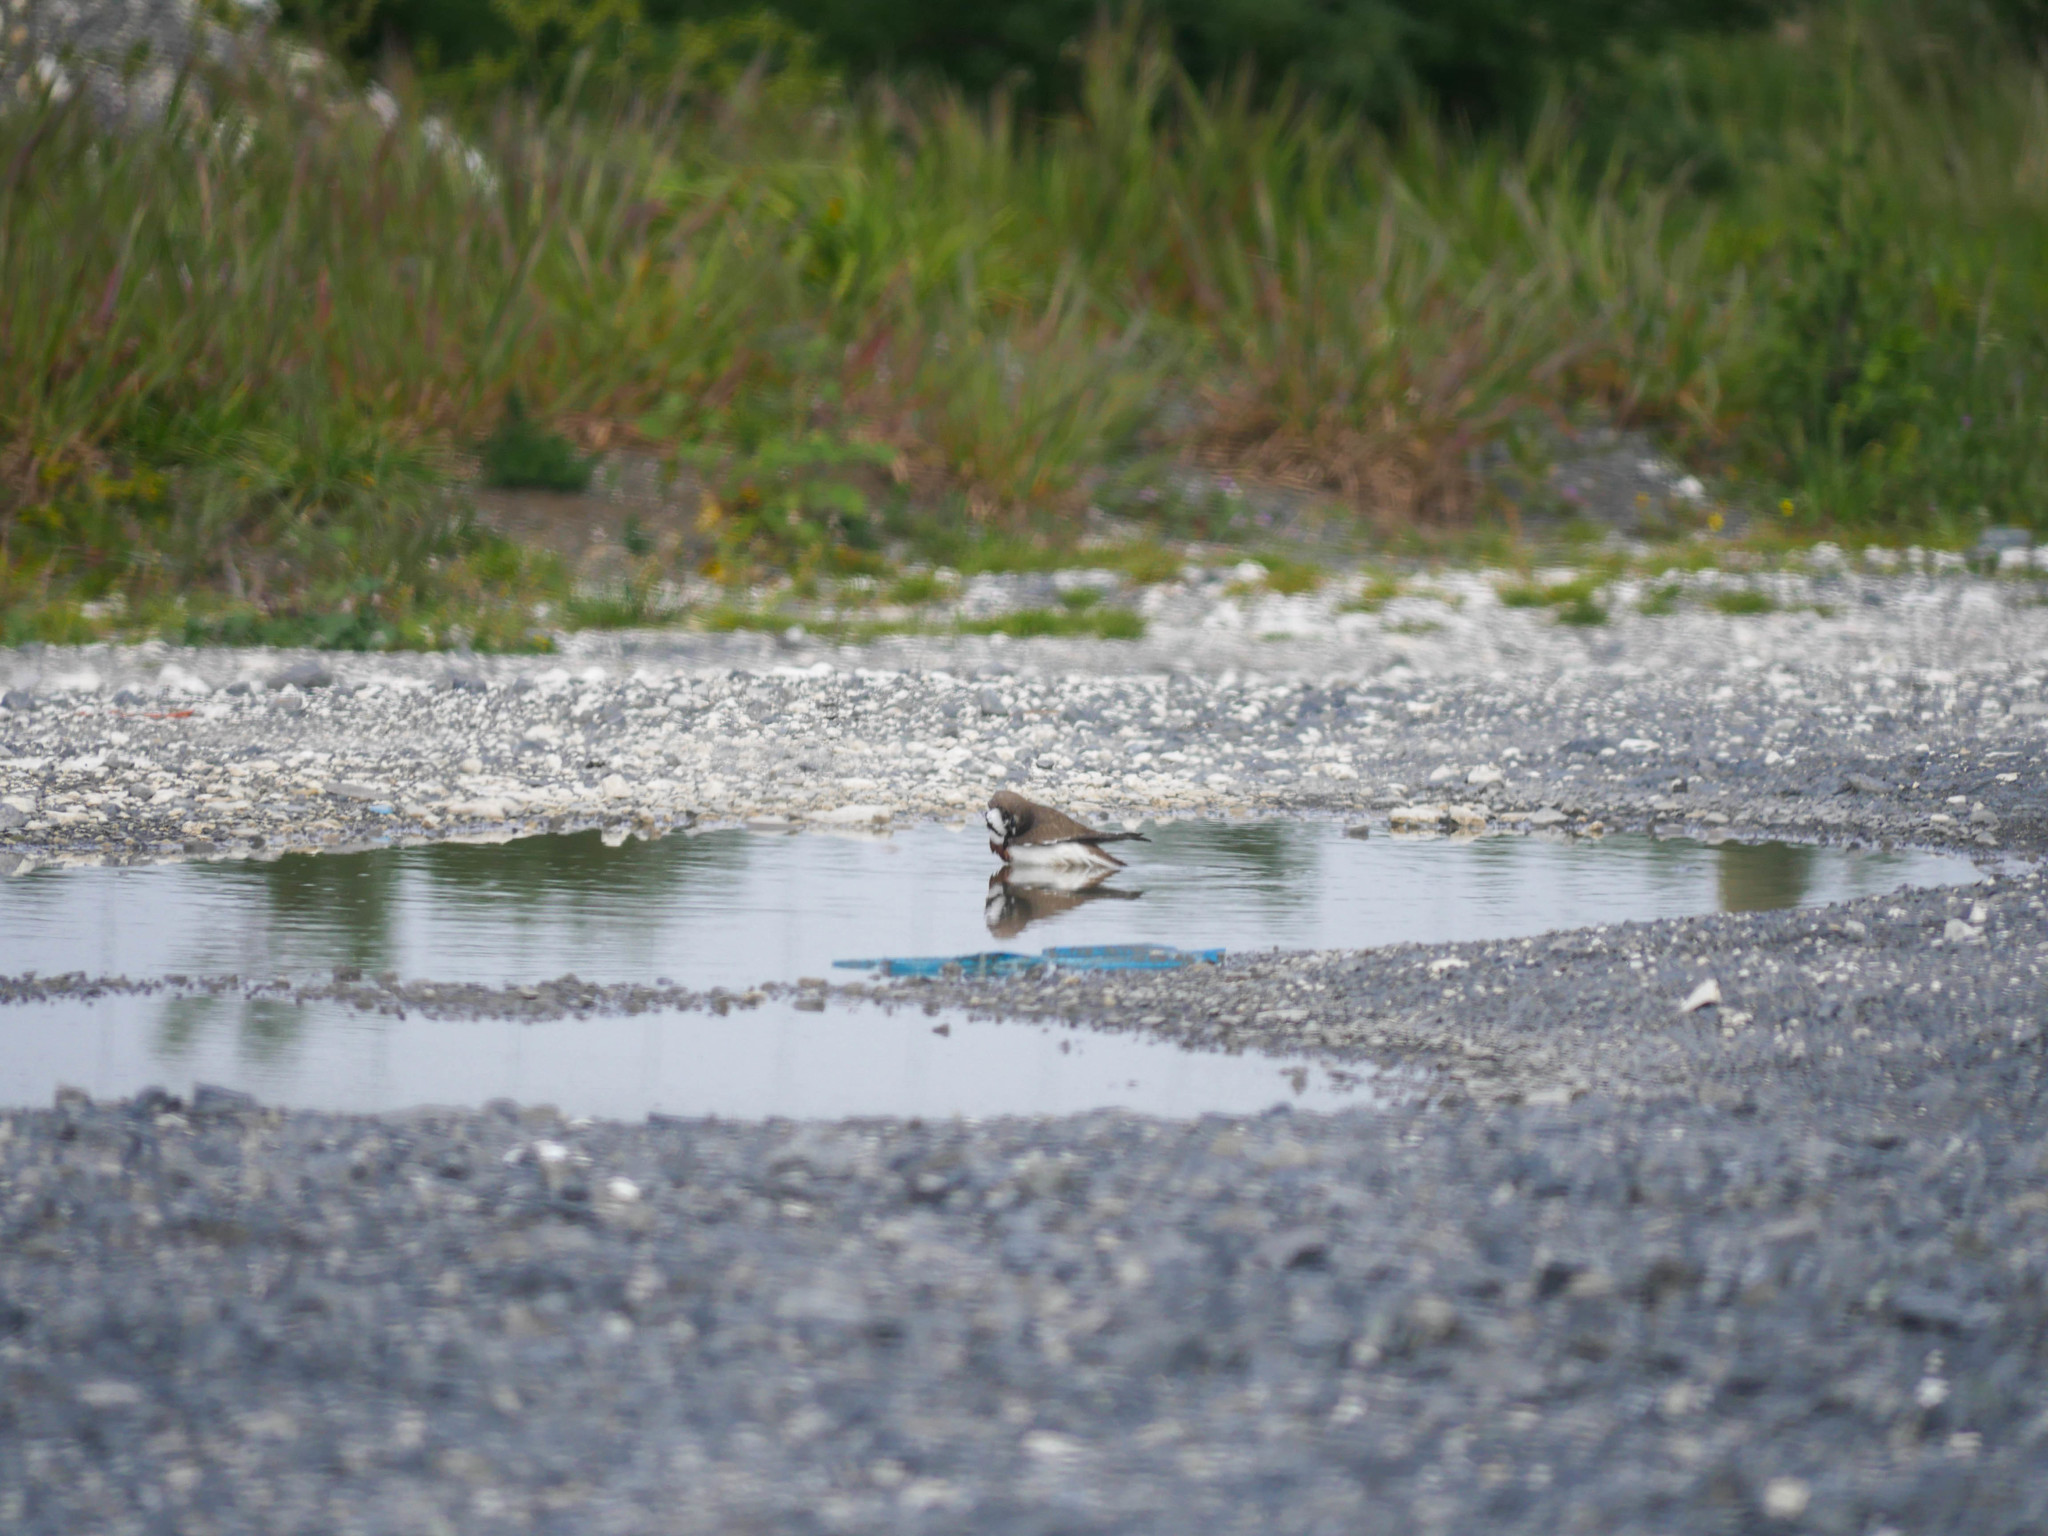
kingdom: Animalia
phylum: Chordata
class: Aves
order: Charadriiformes
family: Charadriidae
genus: Anarhynchus
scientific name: Anarhynchus
